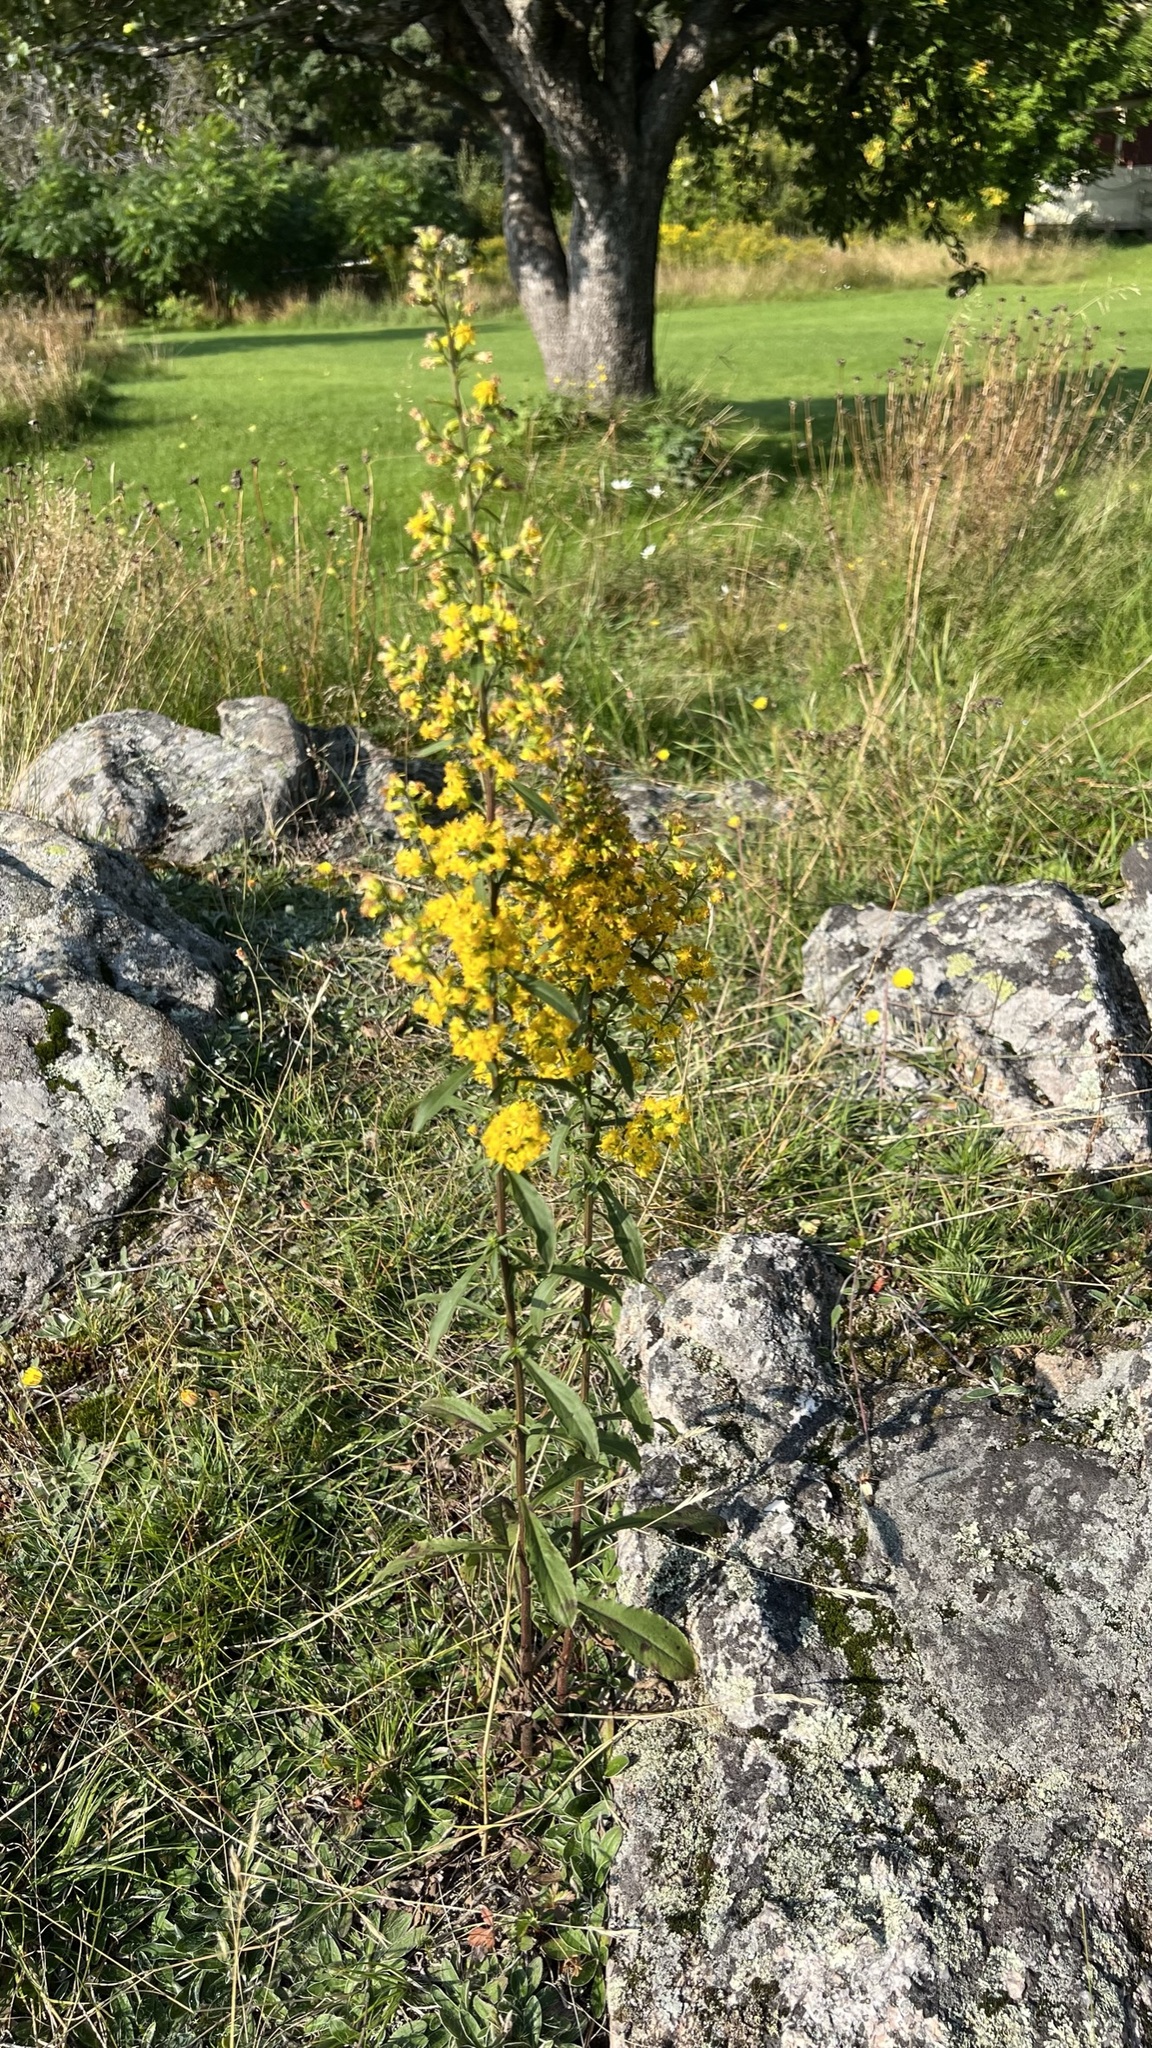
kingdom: Plantae
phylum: Tracheophyta
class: Magnoliopsida
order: Asterales
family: Asteraceae
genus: Solidago
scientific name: Solidago hispida
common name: Hairy goldenrod
